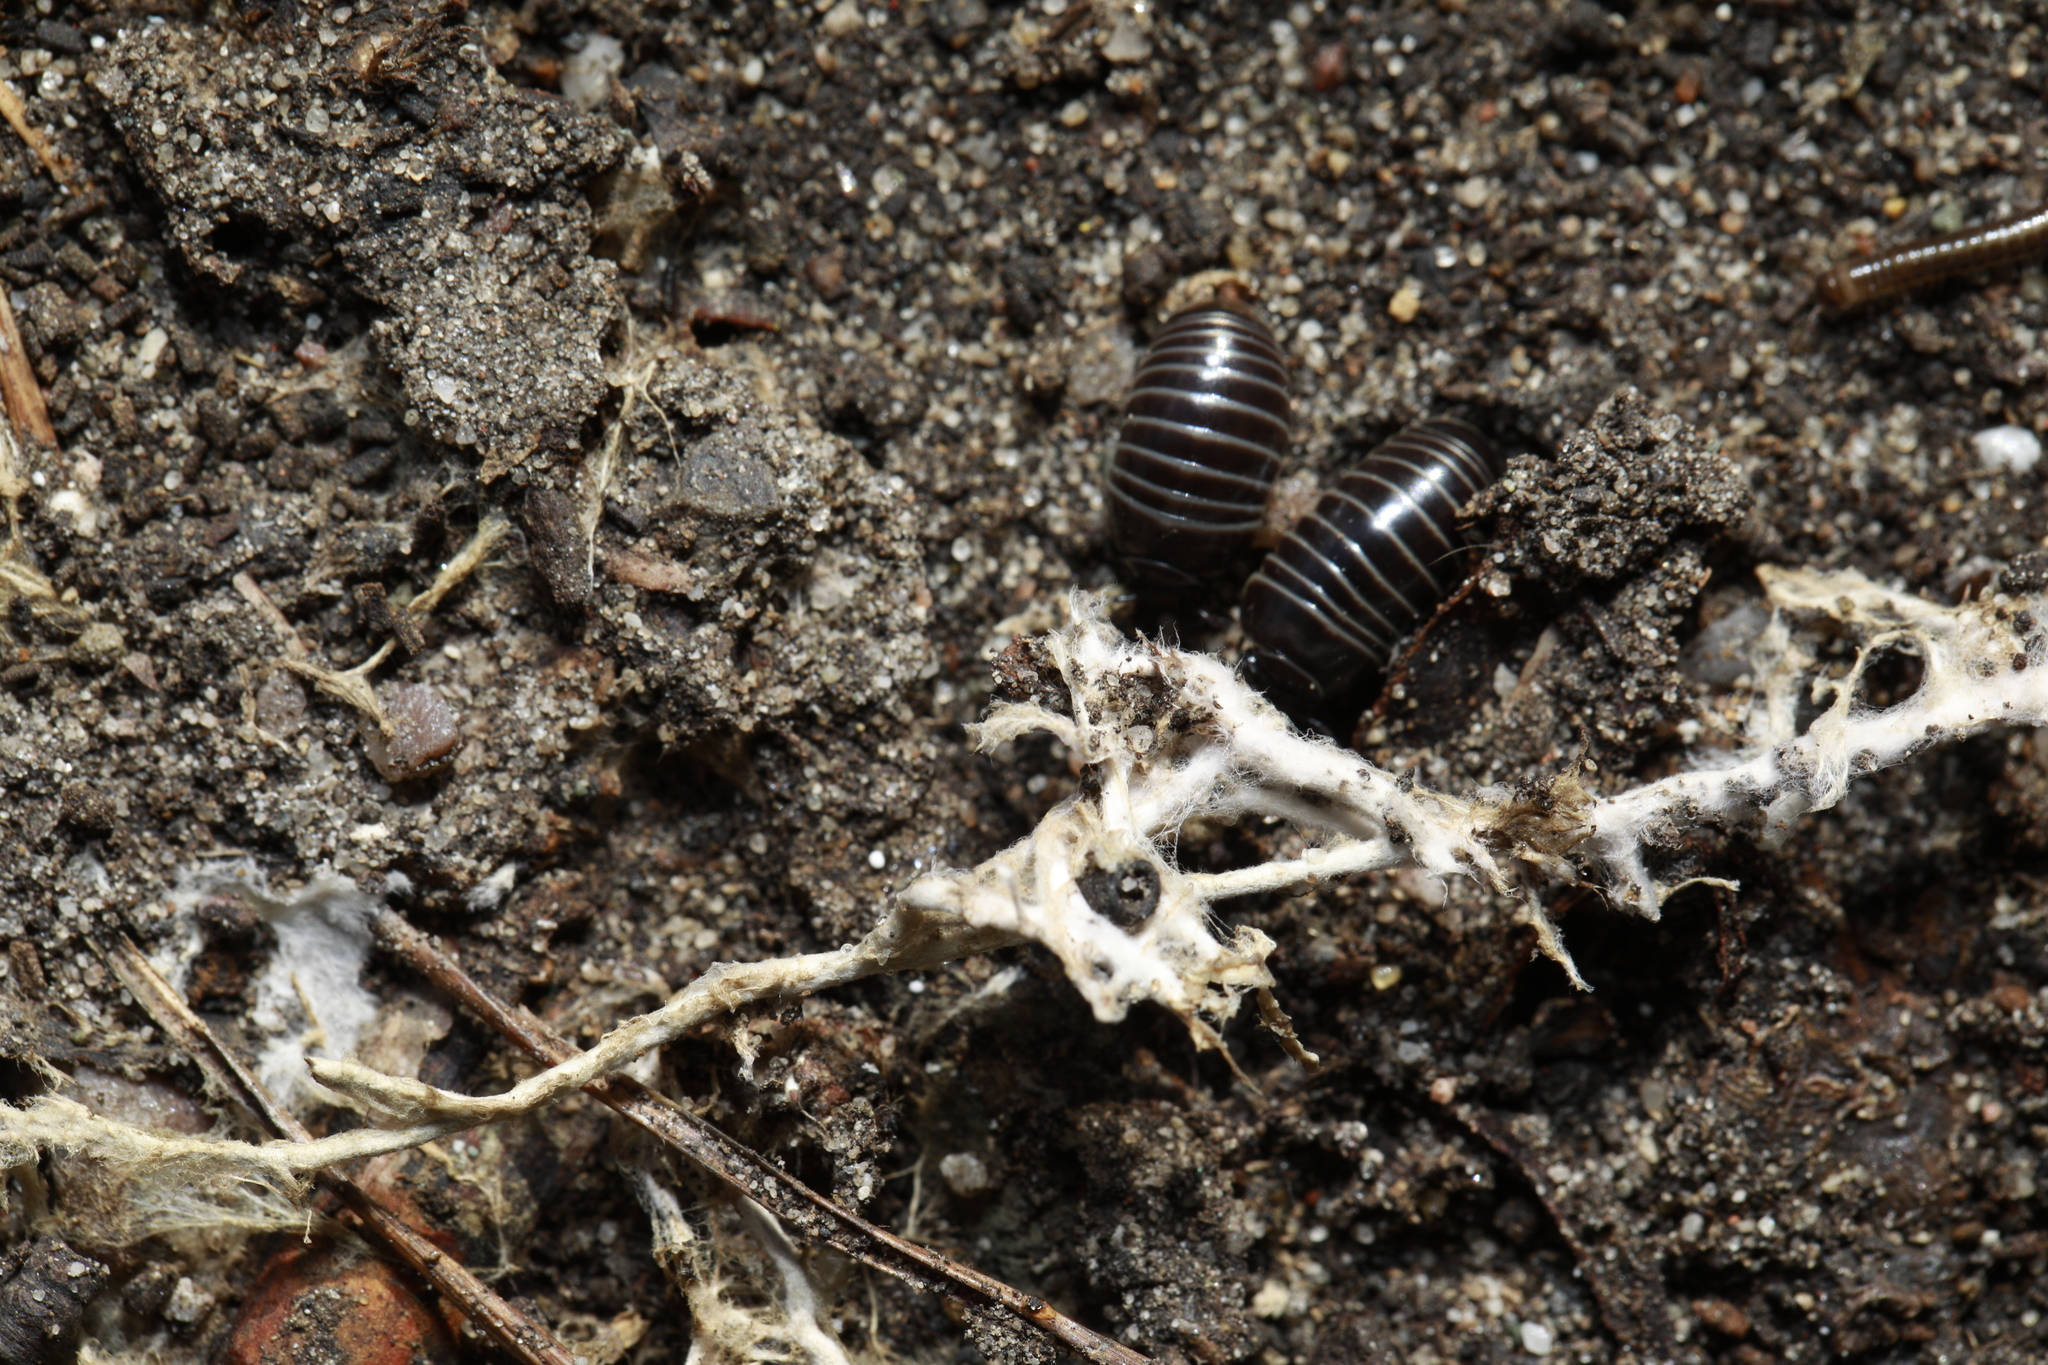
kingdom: Animalia
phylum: Arthropoda
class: Diplopoda
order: Glomerida
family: Glomeridae
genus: Glomeris
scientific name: Glomeris marginata
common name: Bordered pill millipede
